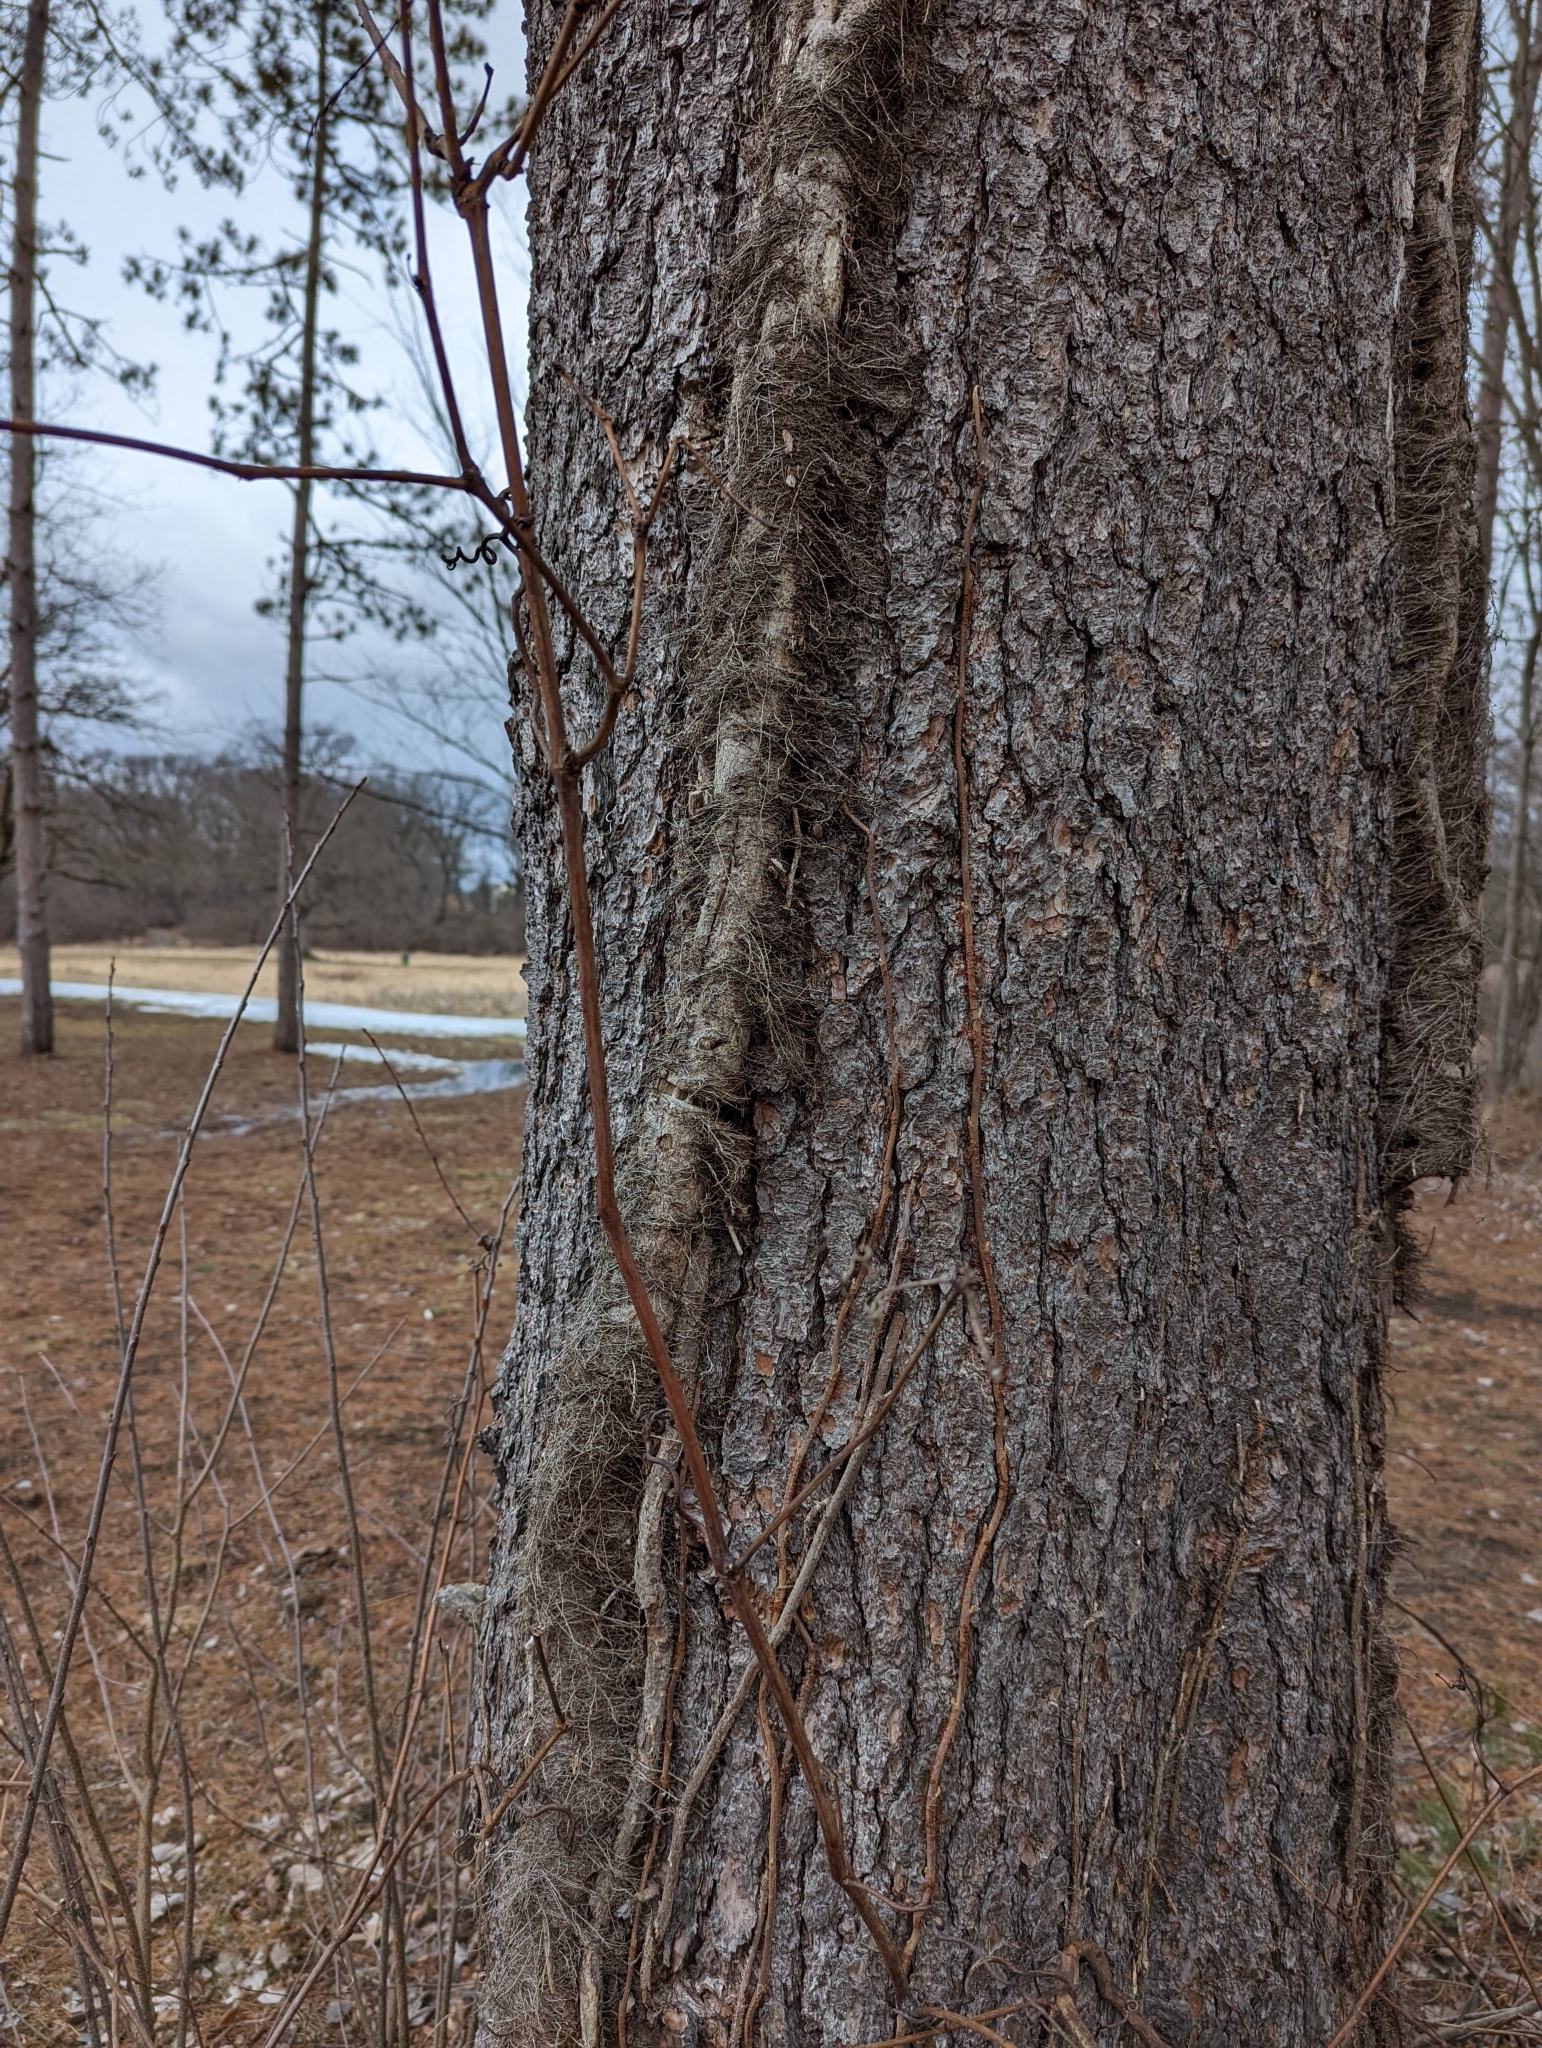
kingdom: Plantae
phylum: Tracheophyta
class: Magnoliopsida
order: Sapindales
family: Anacardiaceae
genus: Toxicodendron
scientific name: Toxicodendron radicans
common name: Poison ivy
